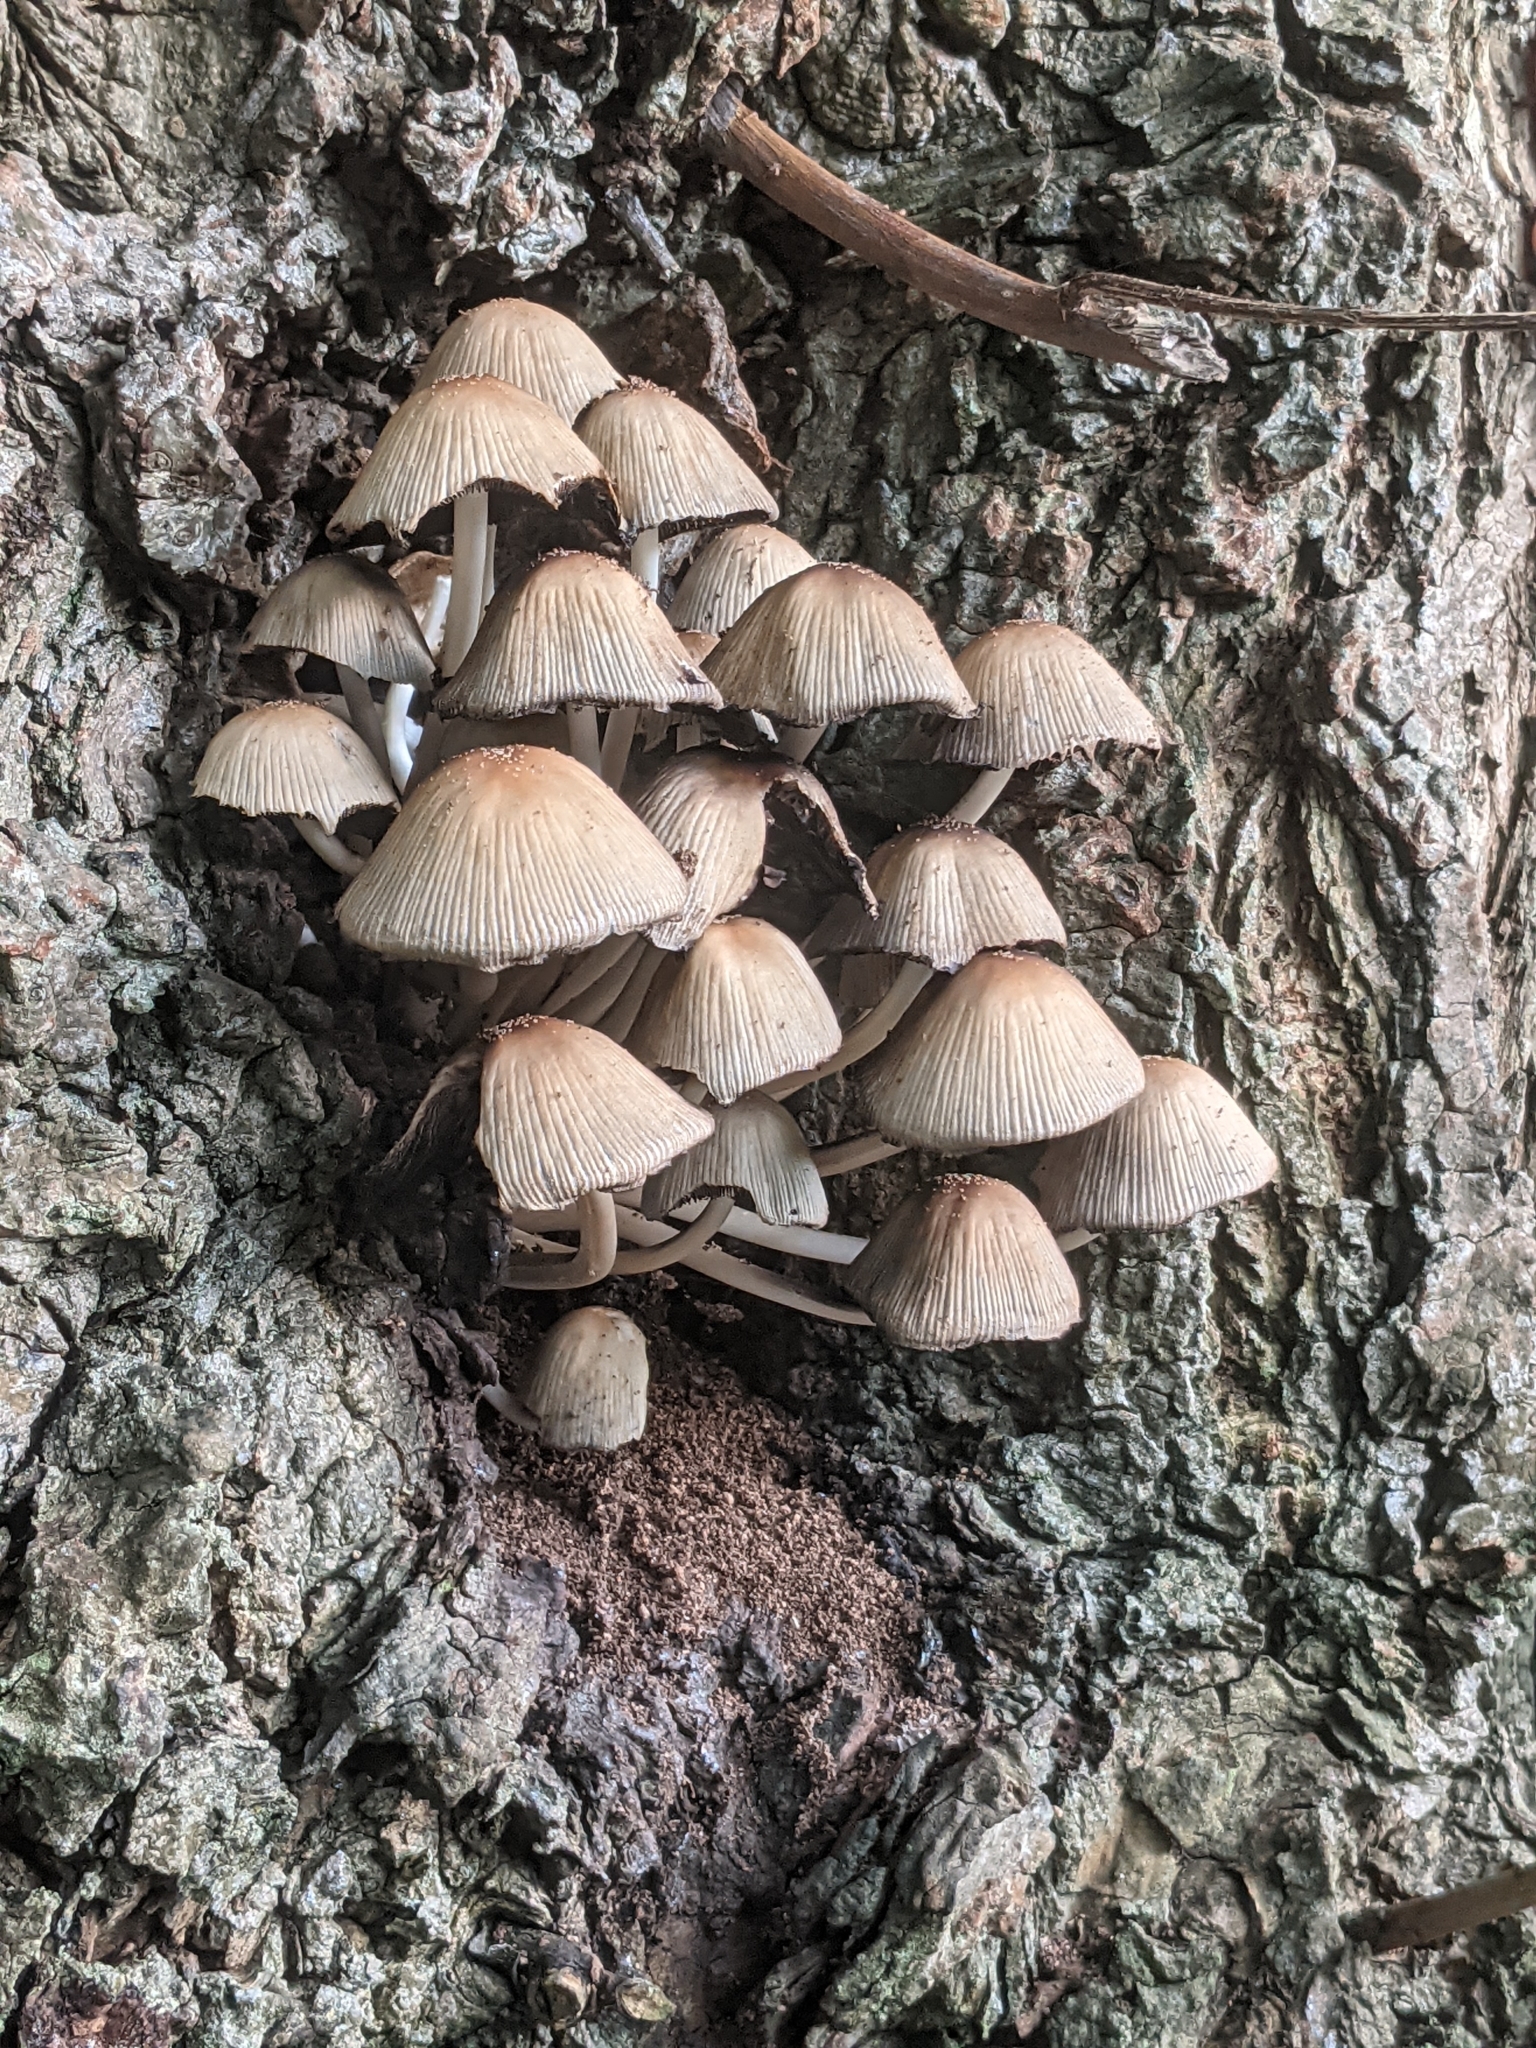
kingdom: Fungi
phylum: Basidiomycota
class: Agaricomycetes
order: Agaricales
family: Psathyrellaceae
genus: Coprinellus
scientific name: Coprinellus disseminatus
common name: Fairies' bonnets
